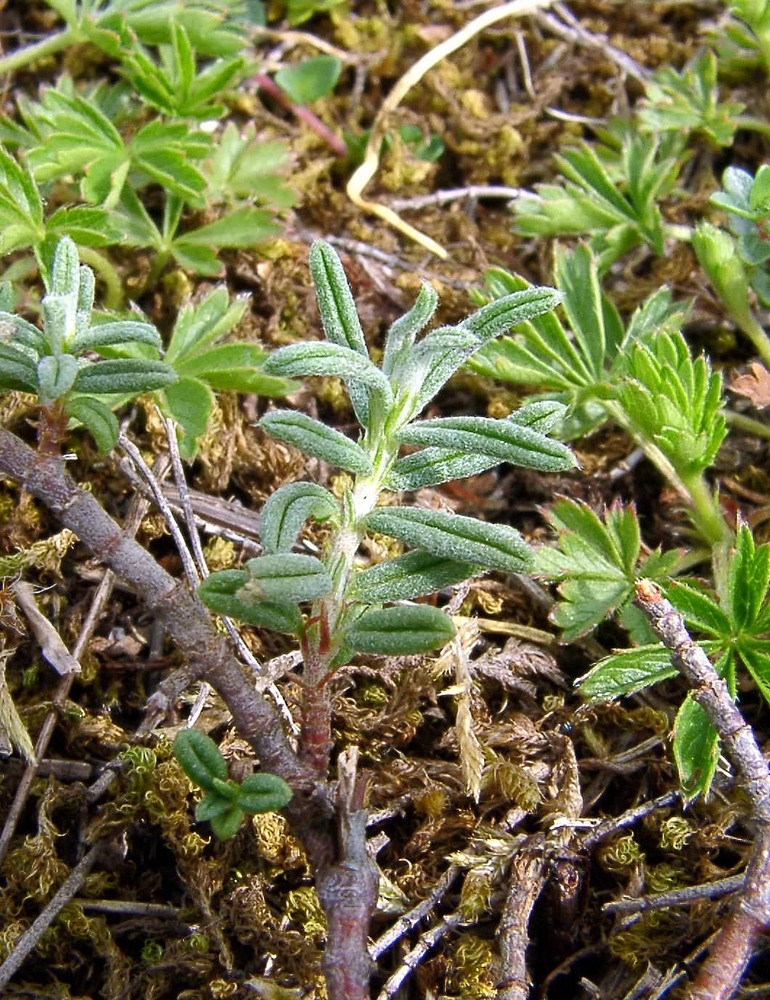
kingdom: Plantae
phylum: Tracheophyta
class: Magnoliopsida
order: Malvales
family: Cistaceae
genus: Helianthemum
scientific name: Helianthemum apenninum
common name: White rock-rose
